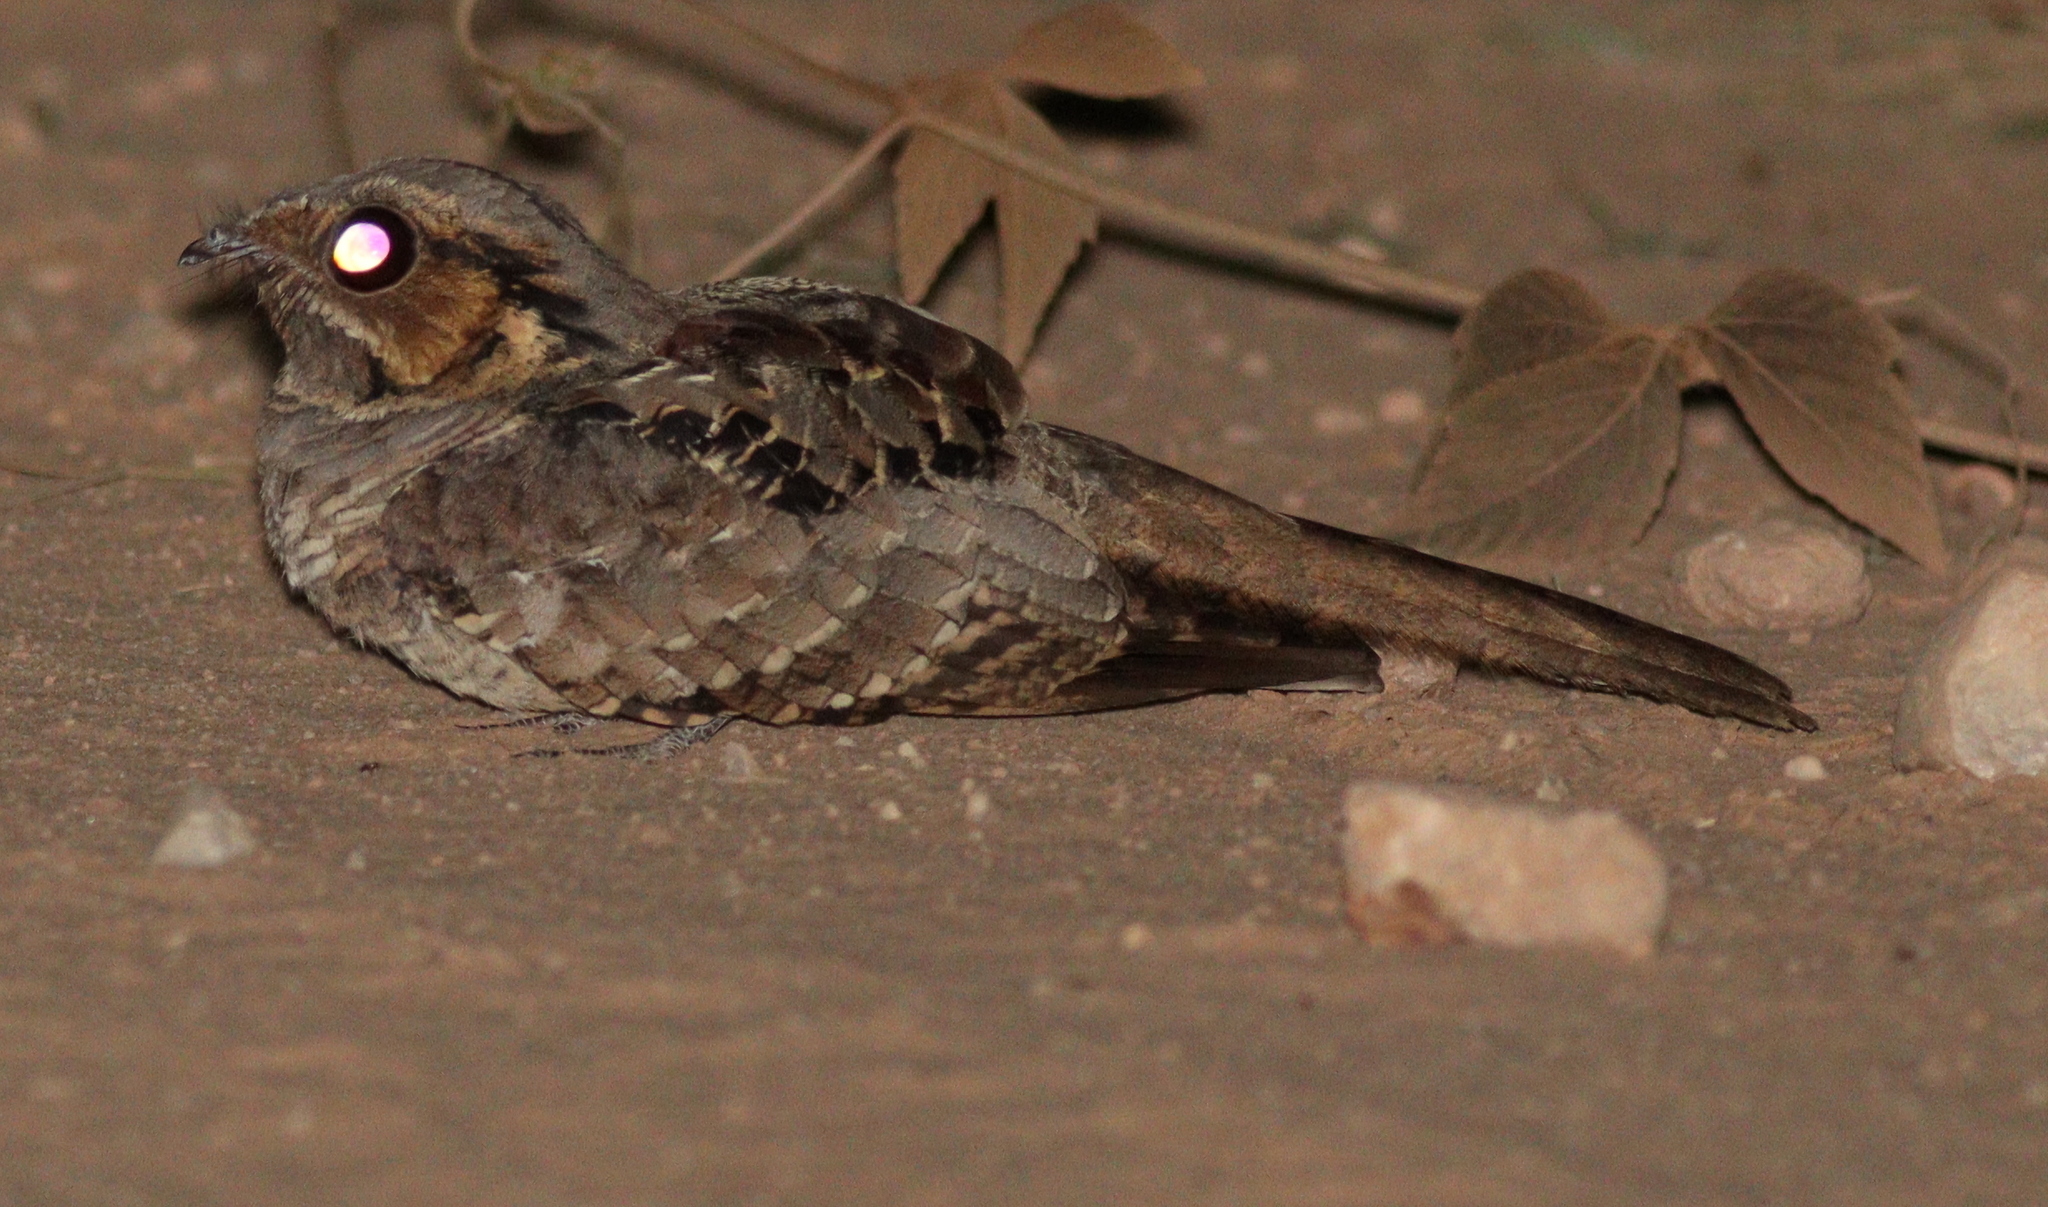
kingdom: Animalia
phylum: Chordata
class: Aves
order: Caprimulgiformes
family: Caprimulgidae
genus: Nyctidromus
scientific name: Nyctidromus albicollis
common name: Pauraque
